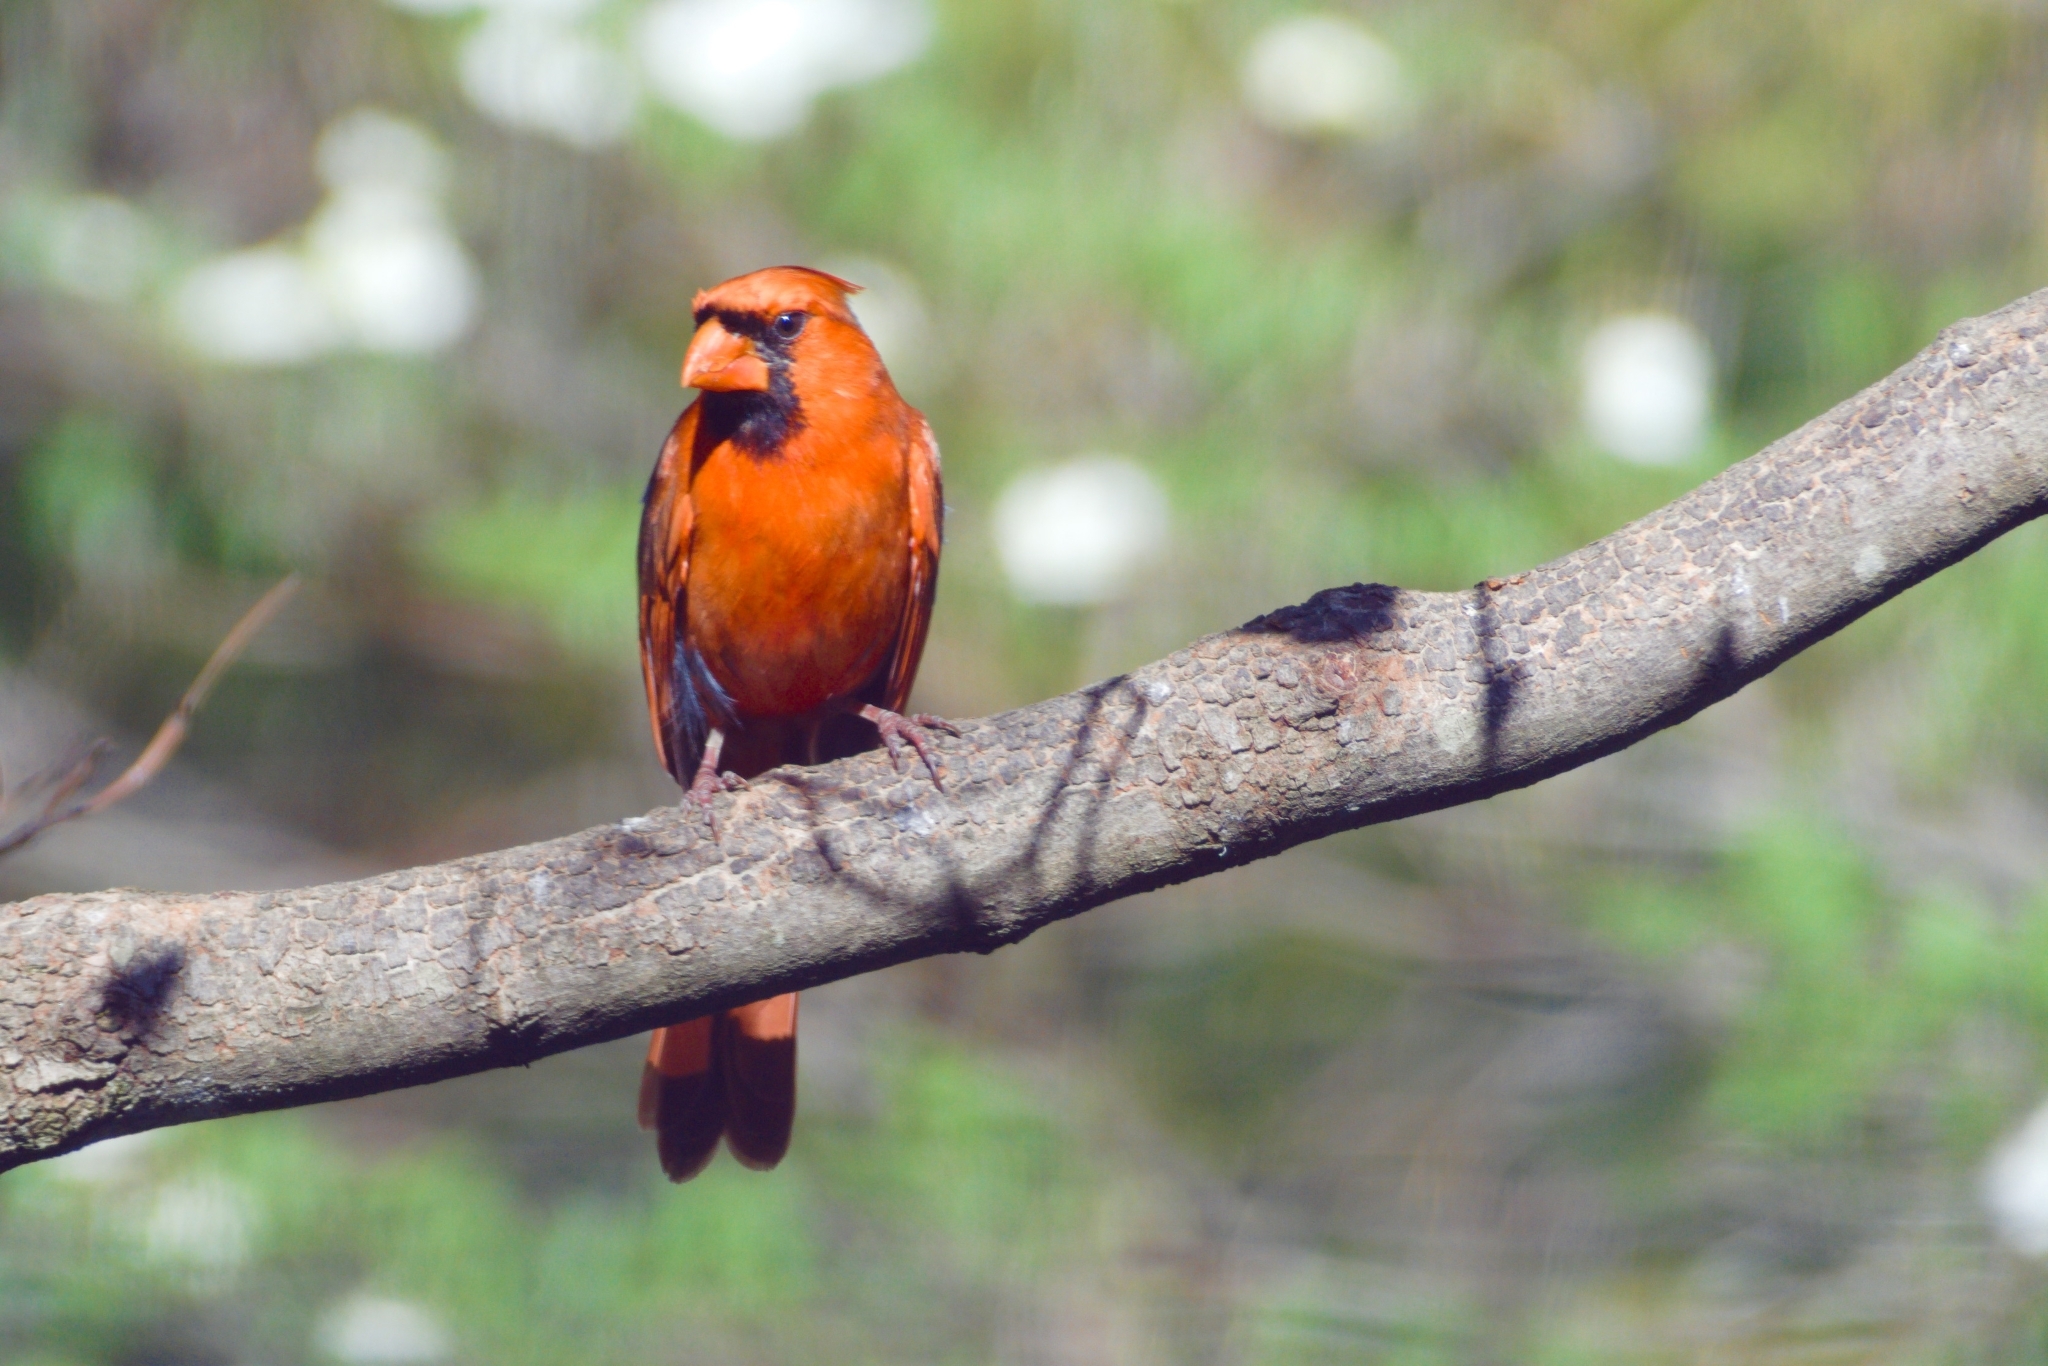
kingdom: Animalia
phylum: Chordata
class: Aves
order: Passeriformes
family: Cardinalidae
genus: Cardinalis
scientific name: Cardinalis cardinalis
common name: Northern cardinal
